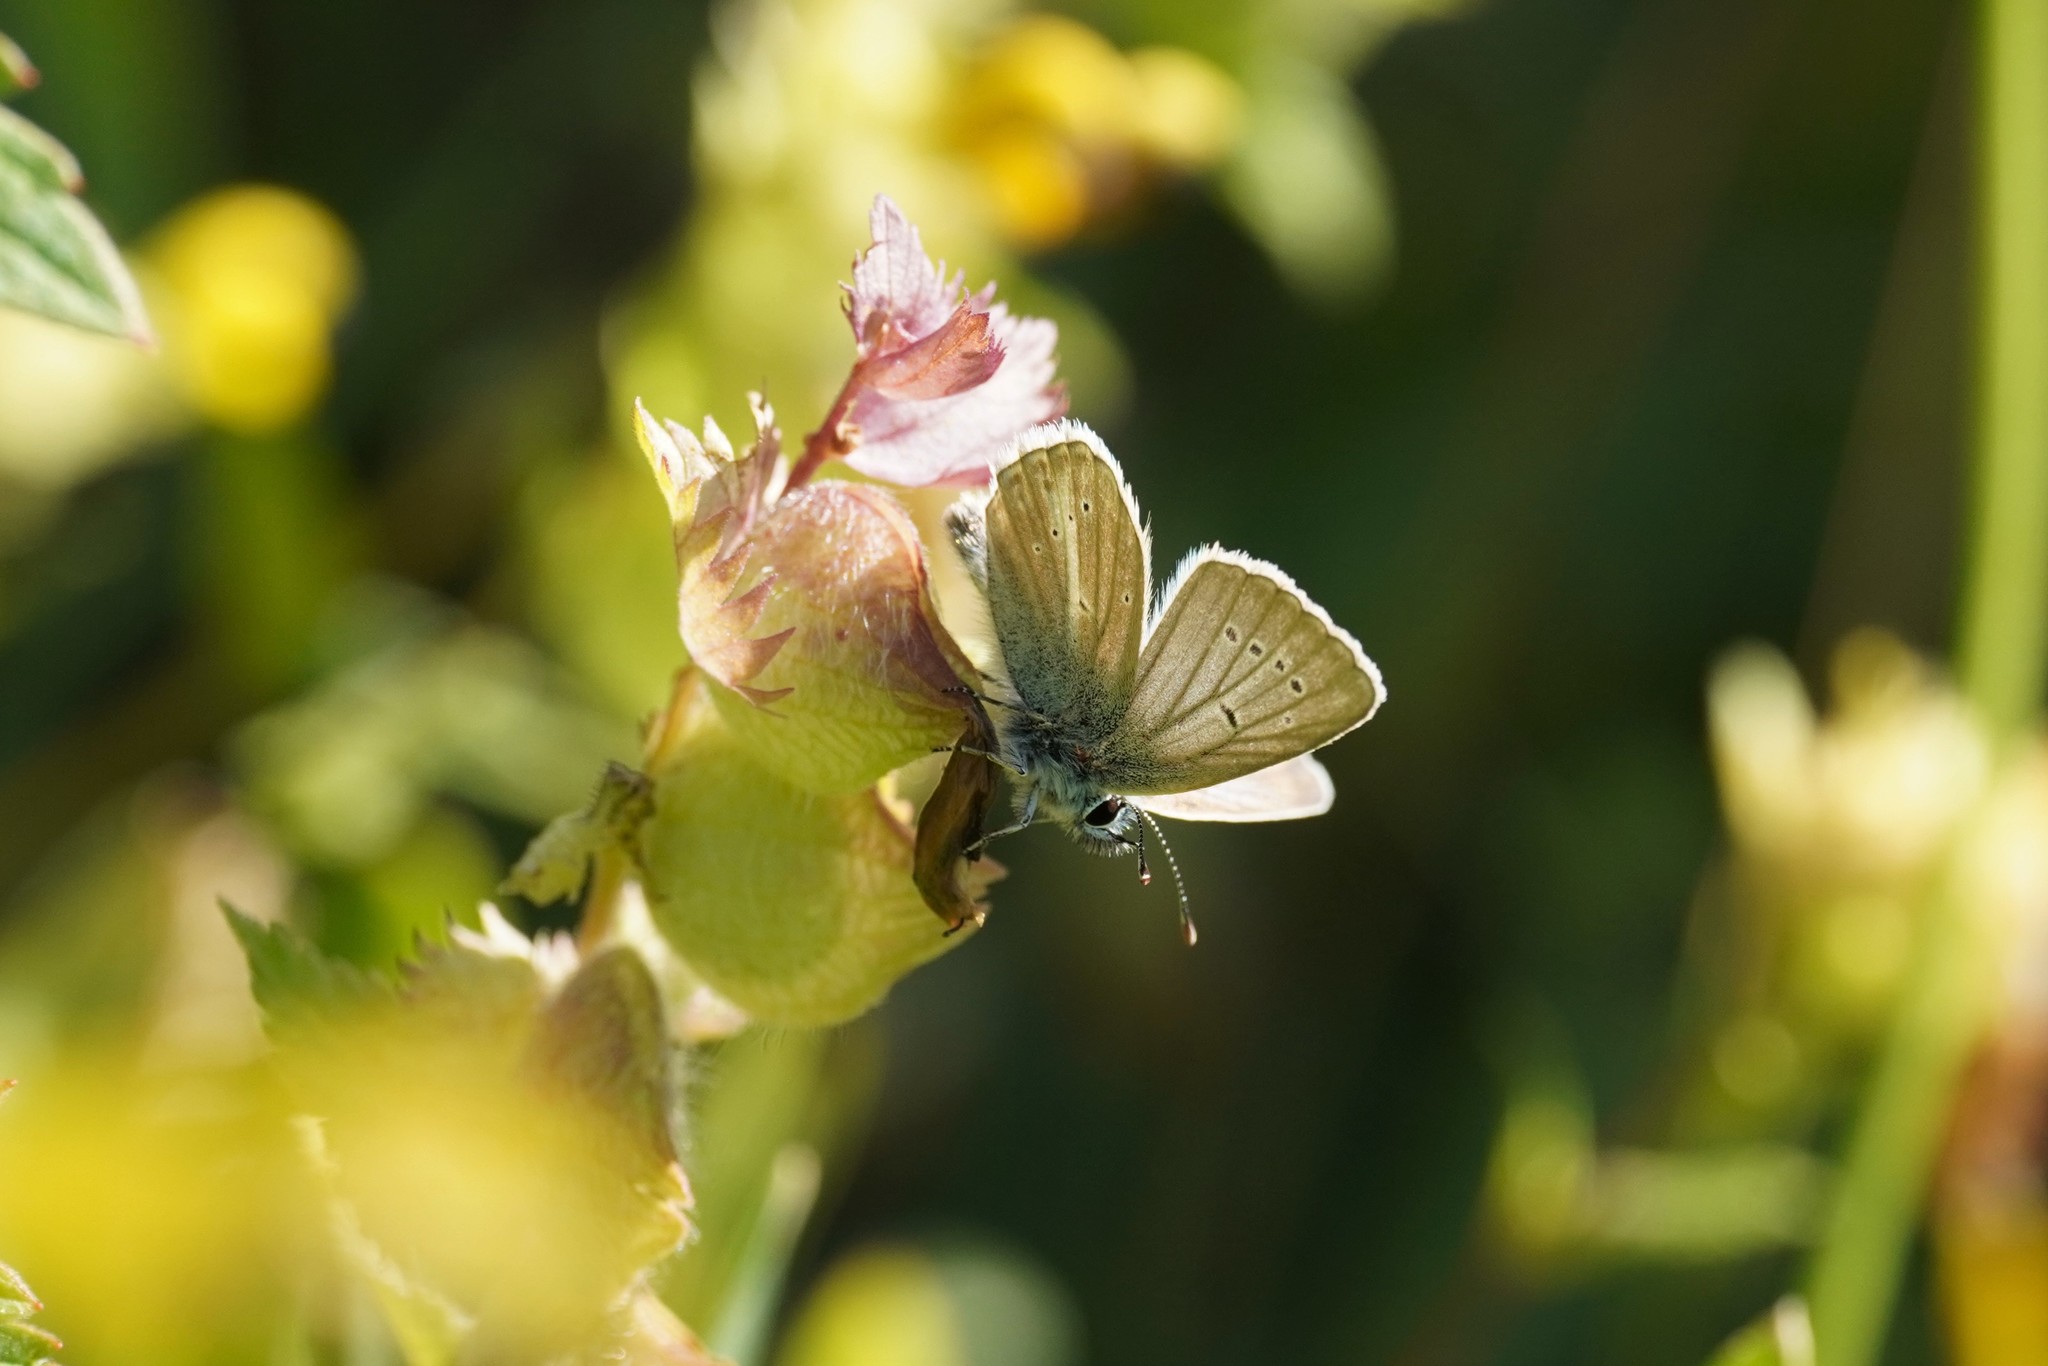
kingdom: Animalia
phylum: Arthropoda
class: Insecta
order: Lepidoptera
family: Lycaenidae
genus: Pseudoaricia
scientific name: Pseudoaricia nicias
